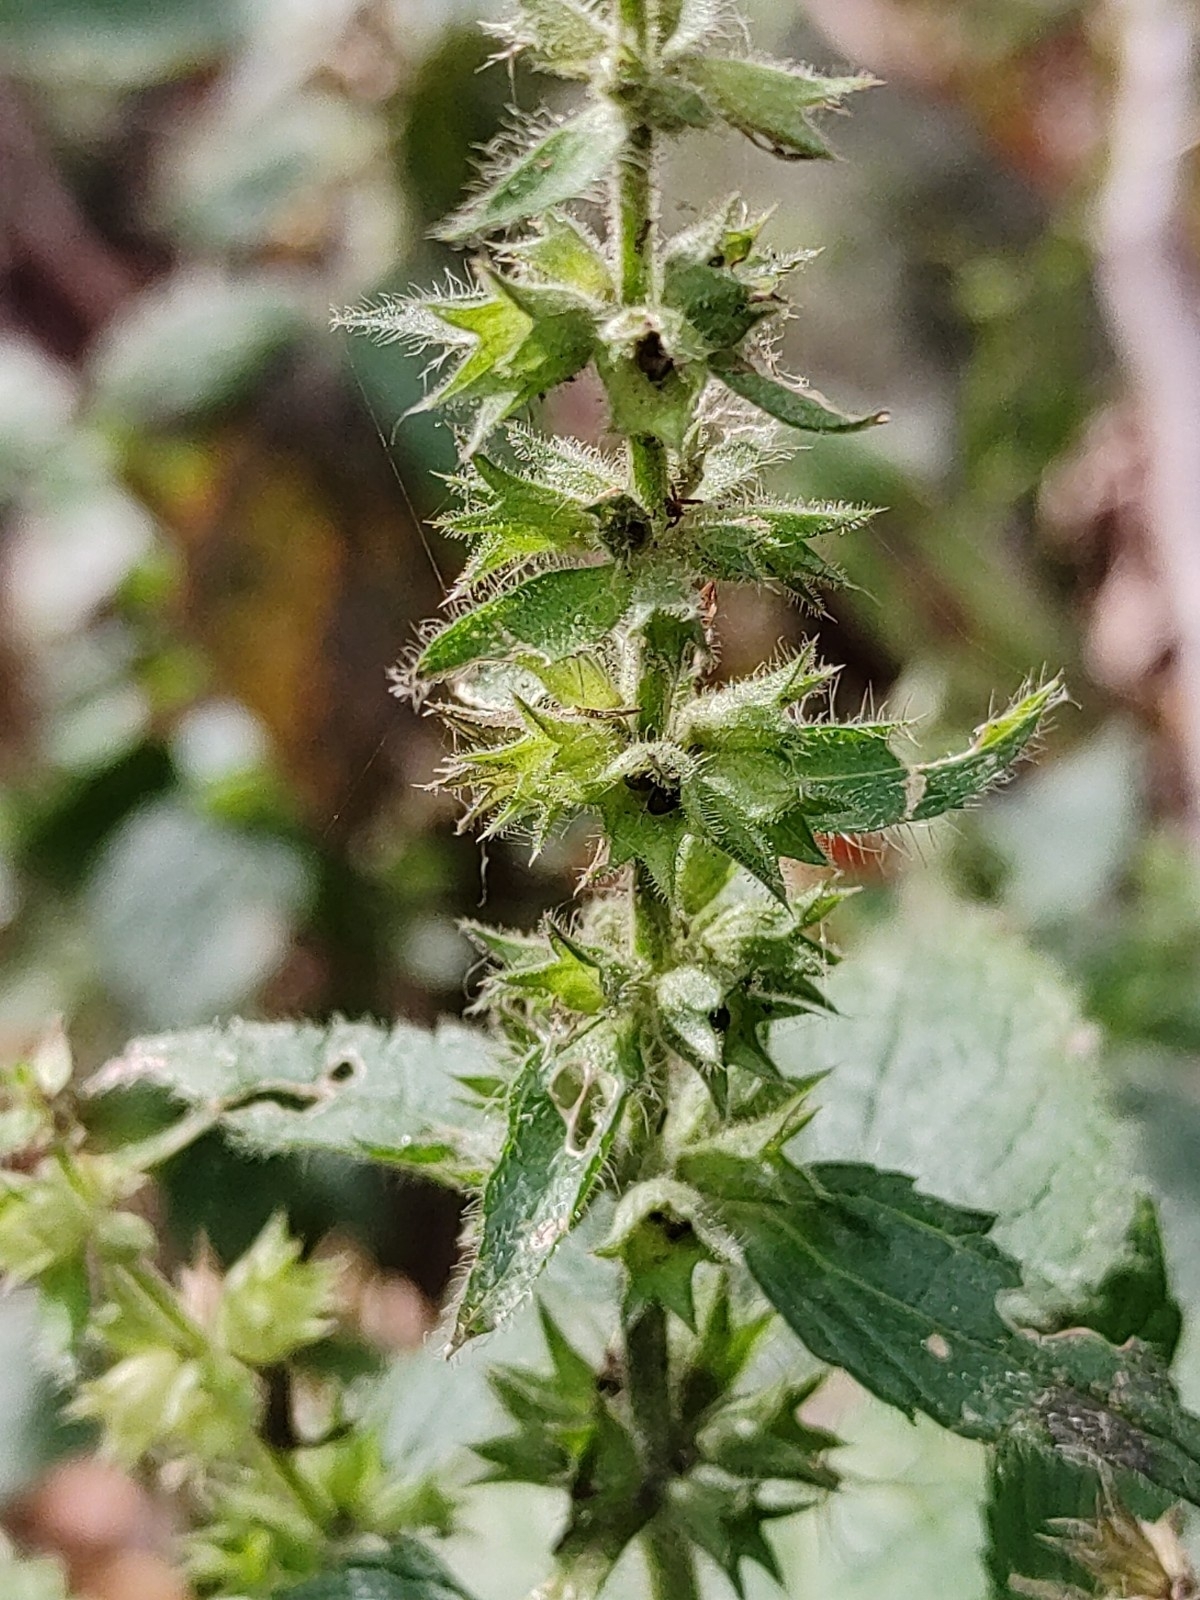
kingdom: Plantae
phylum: Tracheophyta
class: Magnoliopsida
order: Lamiales
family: Lamiaceae
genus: Stachys
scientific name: Stachys sylvatica
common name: Hedge woundwort
